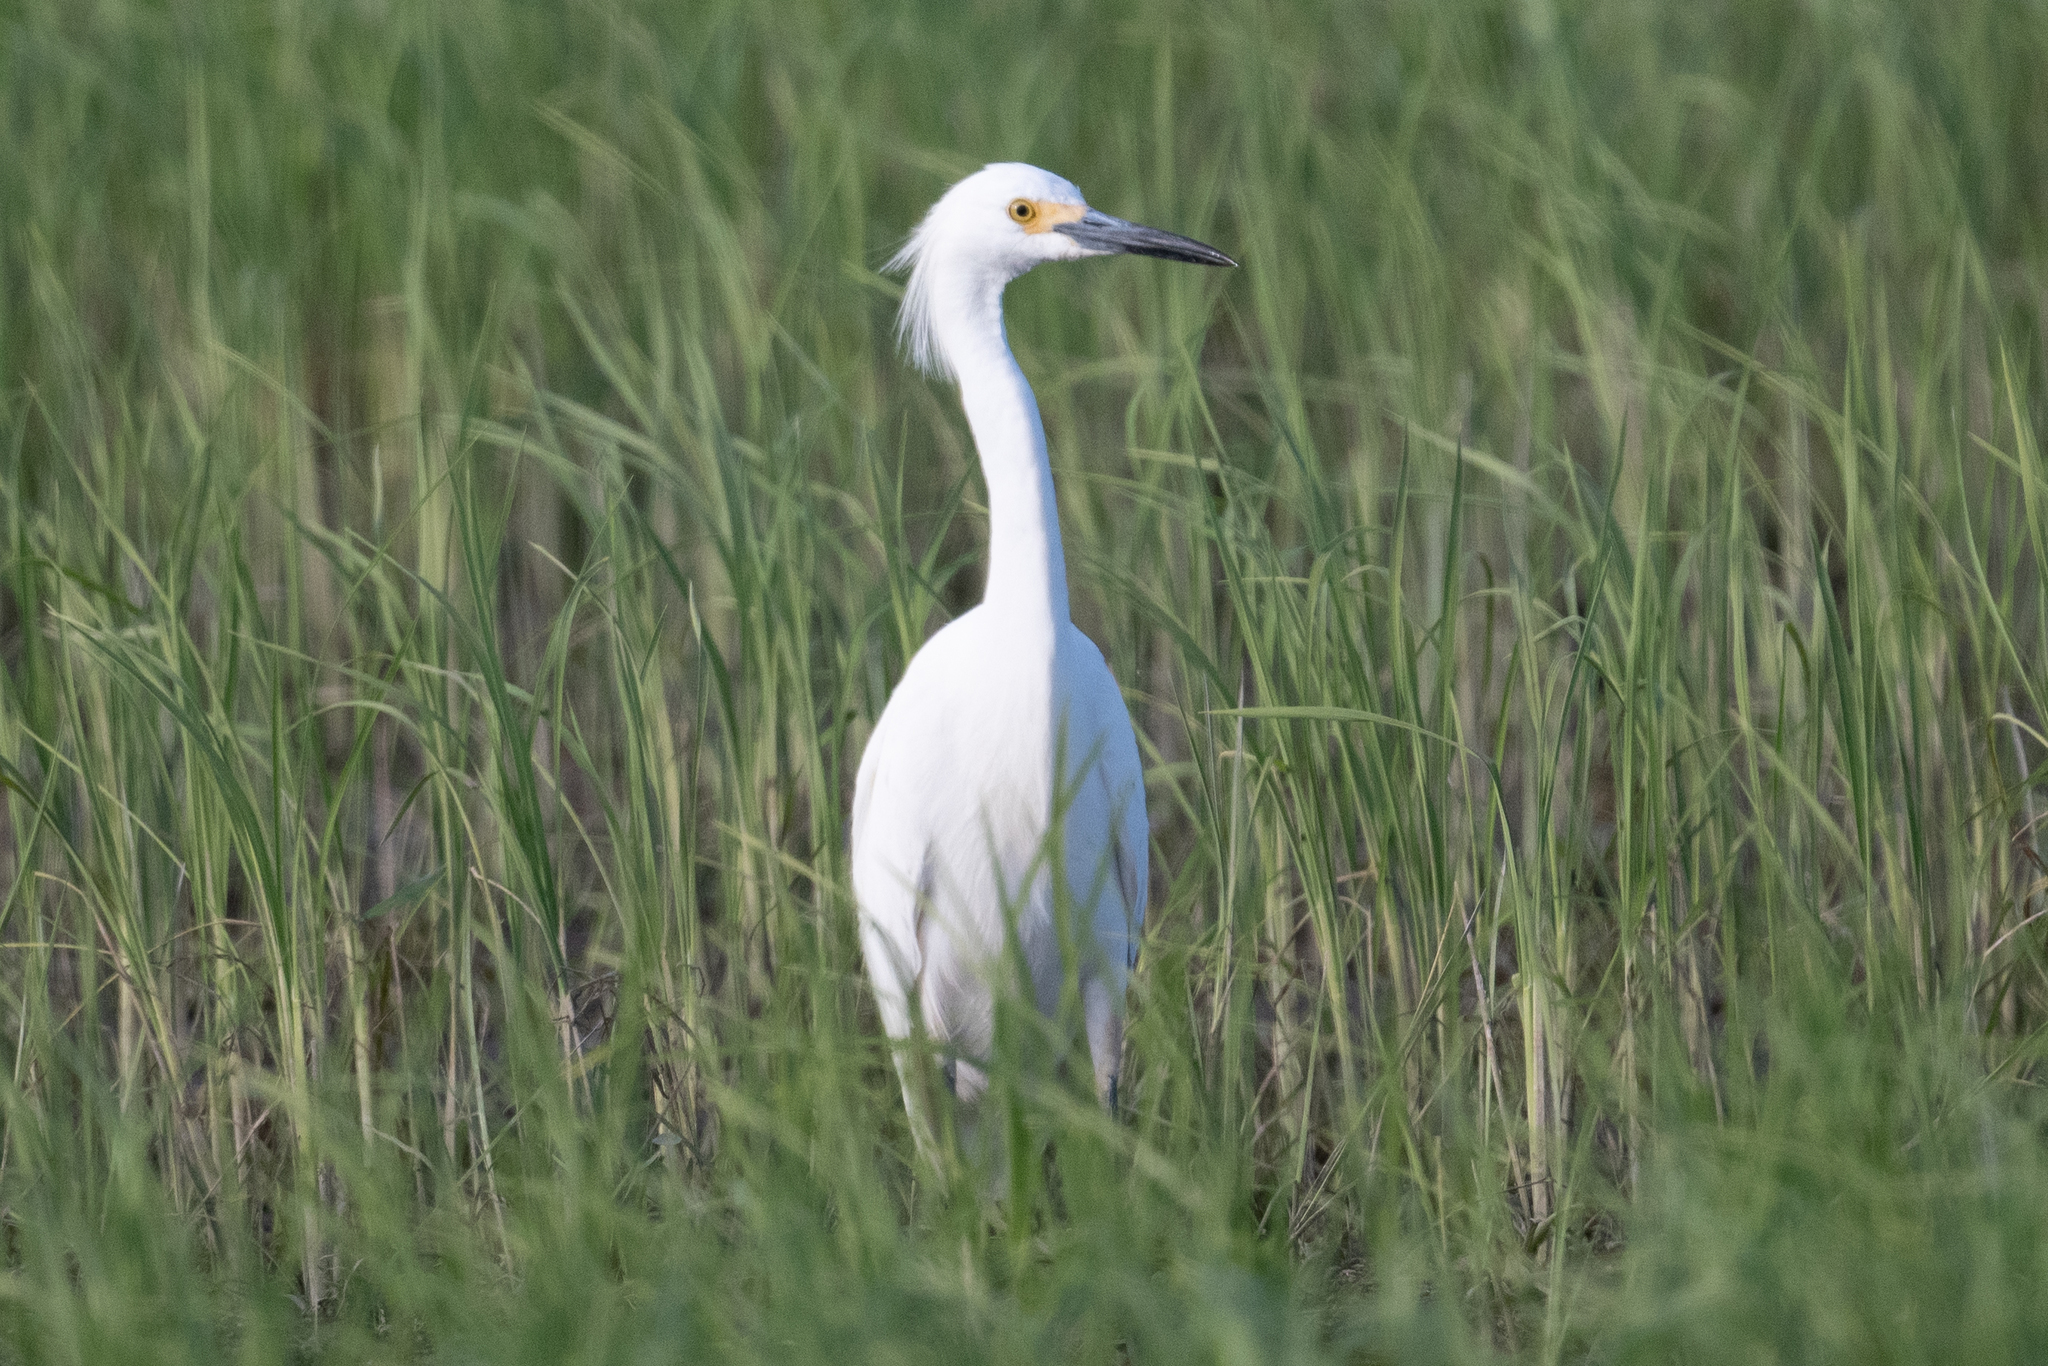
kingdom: Animalia
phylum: Chordata
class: Aves
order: Pelecaniformes
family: Ardeidae
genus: Egretta
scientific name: Egretta thula
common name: Snowy egret
